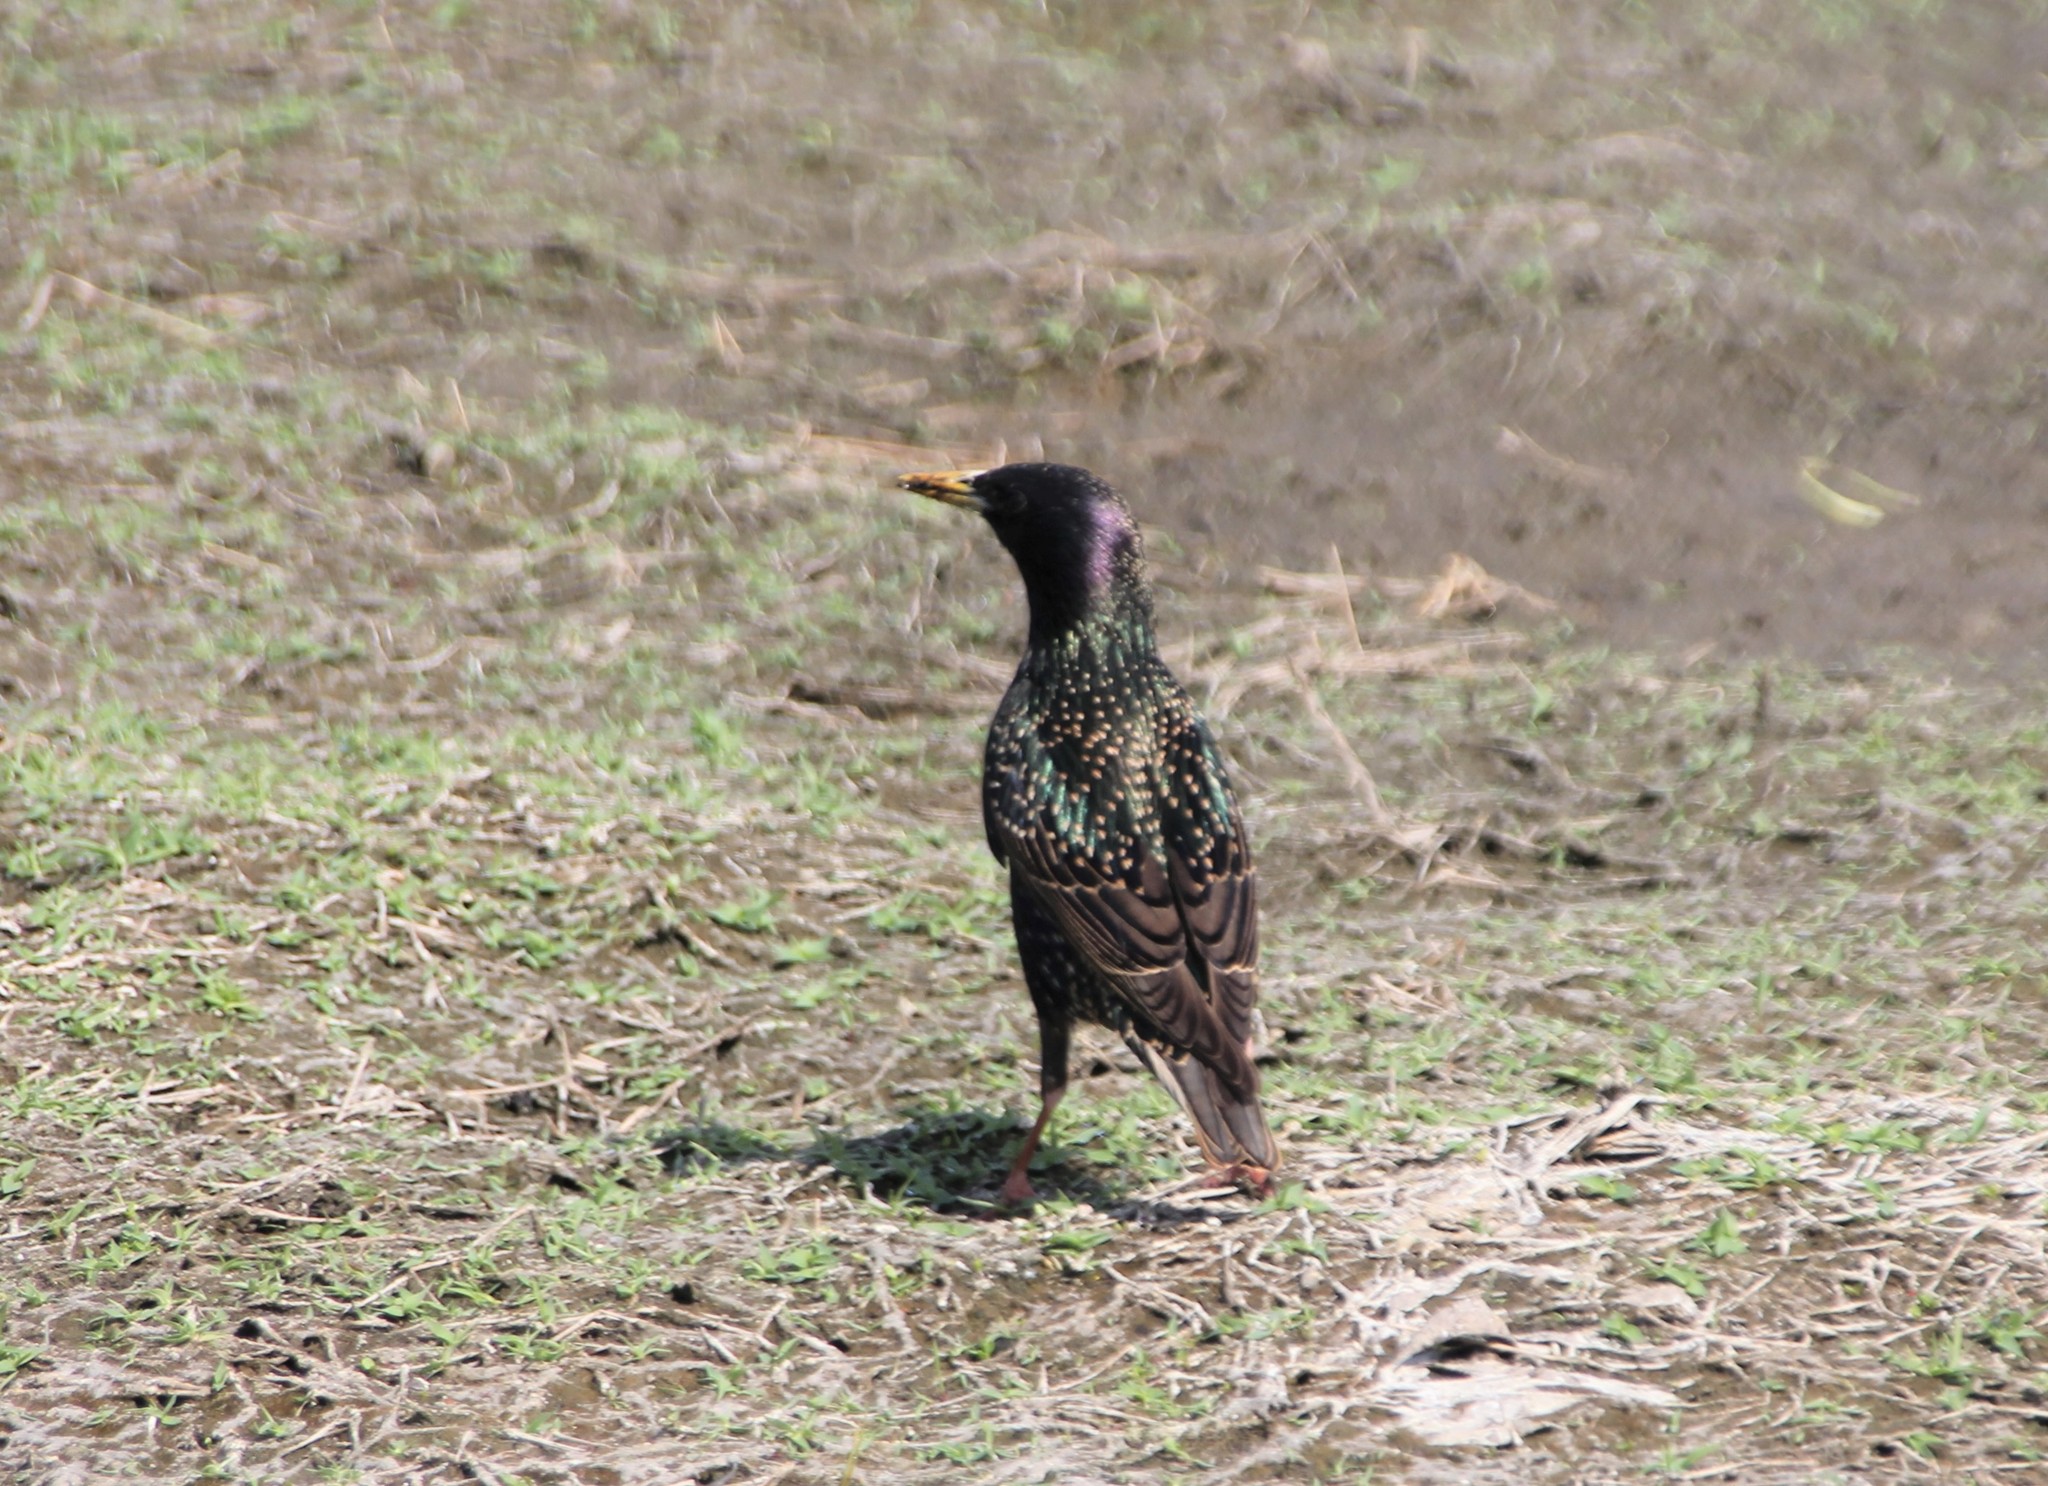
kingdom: Animalia
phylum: Chordata
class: Aves
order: Passeriformes
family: Sturnidae
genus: Sturnus
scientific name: Sturnus vulgaris
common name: Common starling
